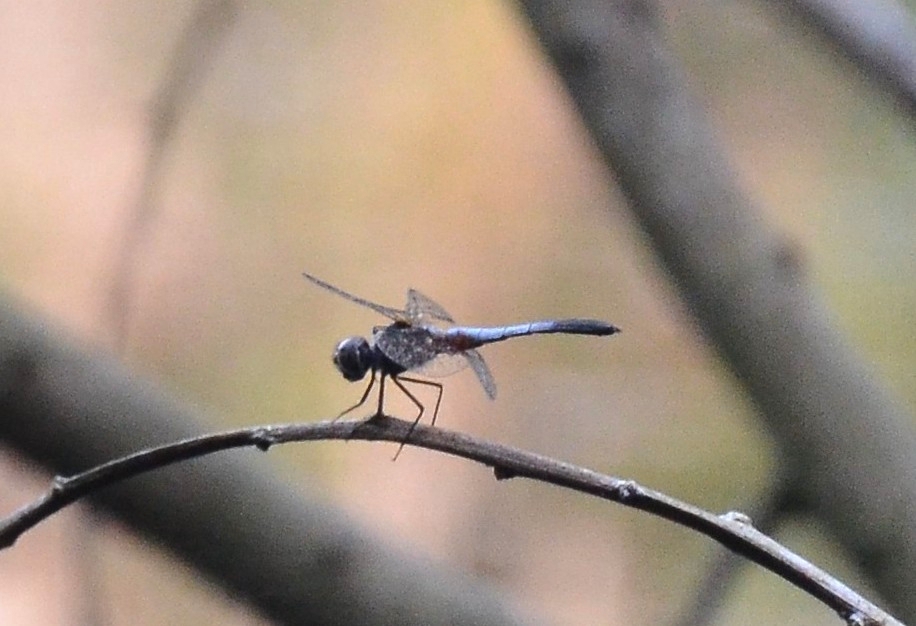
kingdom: Animalia
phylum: Arthropoda
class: Insecta
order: Odonata
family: Libellulidae
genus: Brachydiplax
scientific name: Brachydiplax sobrina
